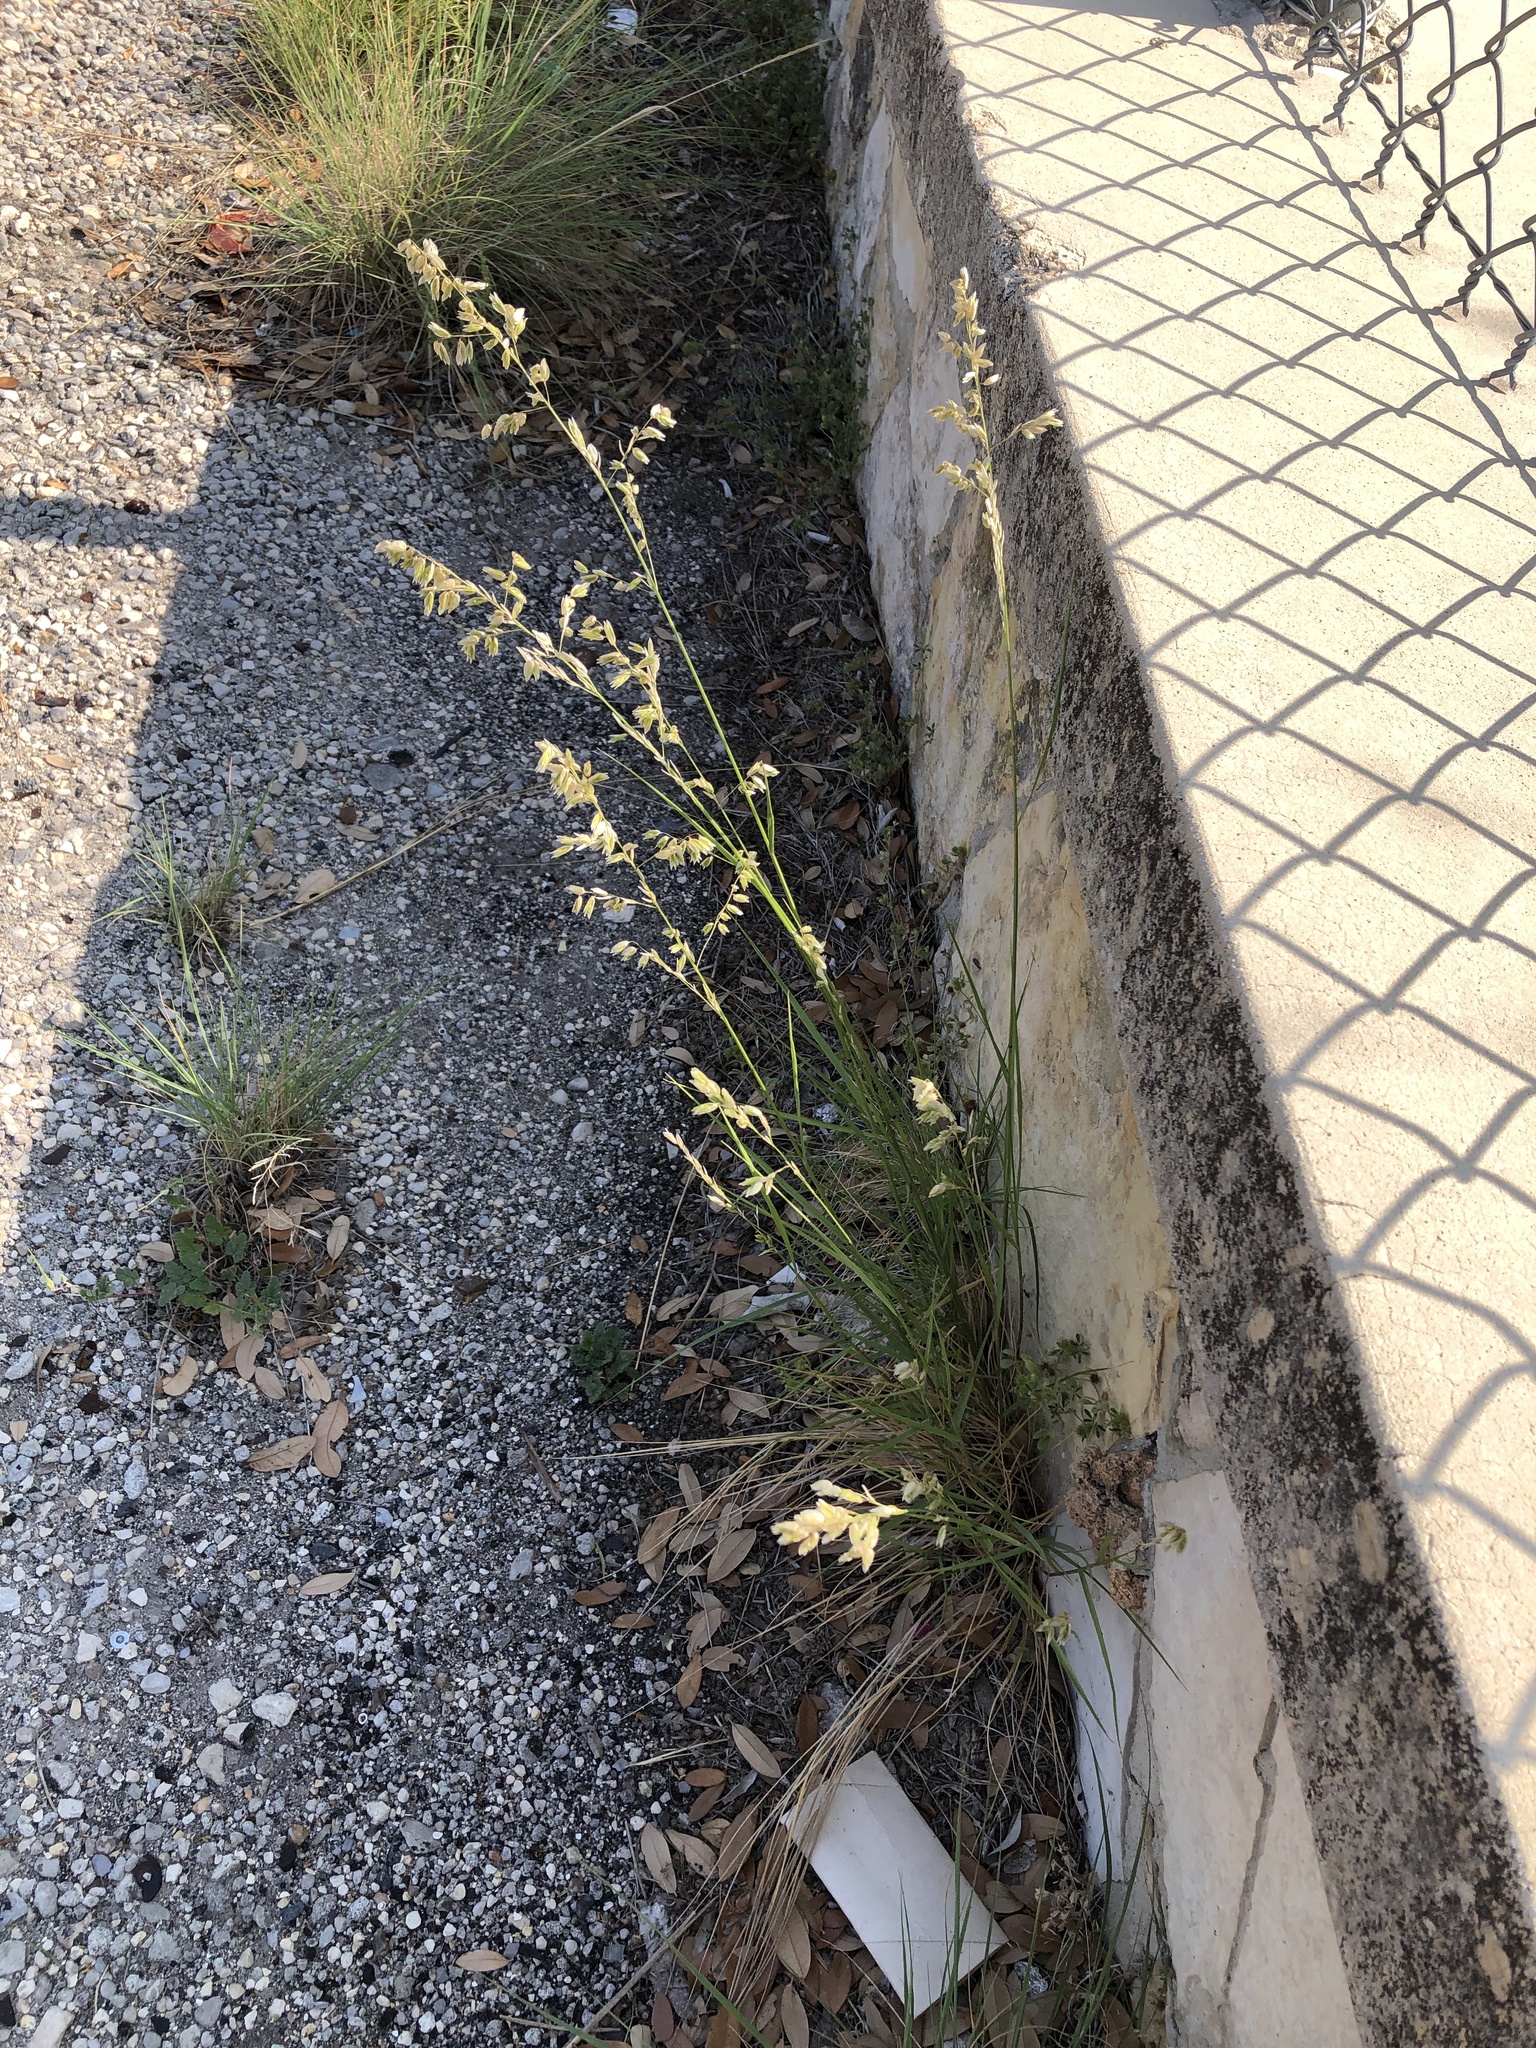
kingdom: Plantae
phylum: Tracheophyta
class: Liliopsida
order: Poales
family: Poaceae
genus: Melica
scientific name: Melica nitens
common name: Three-flower melic
